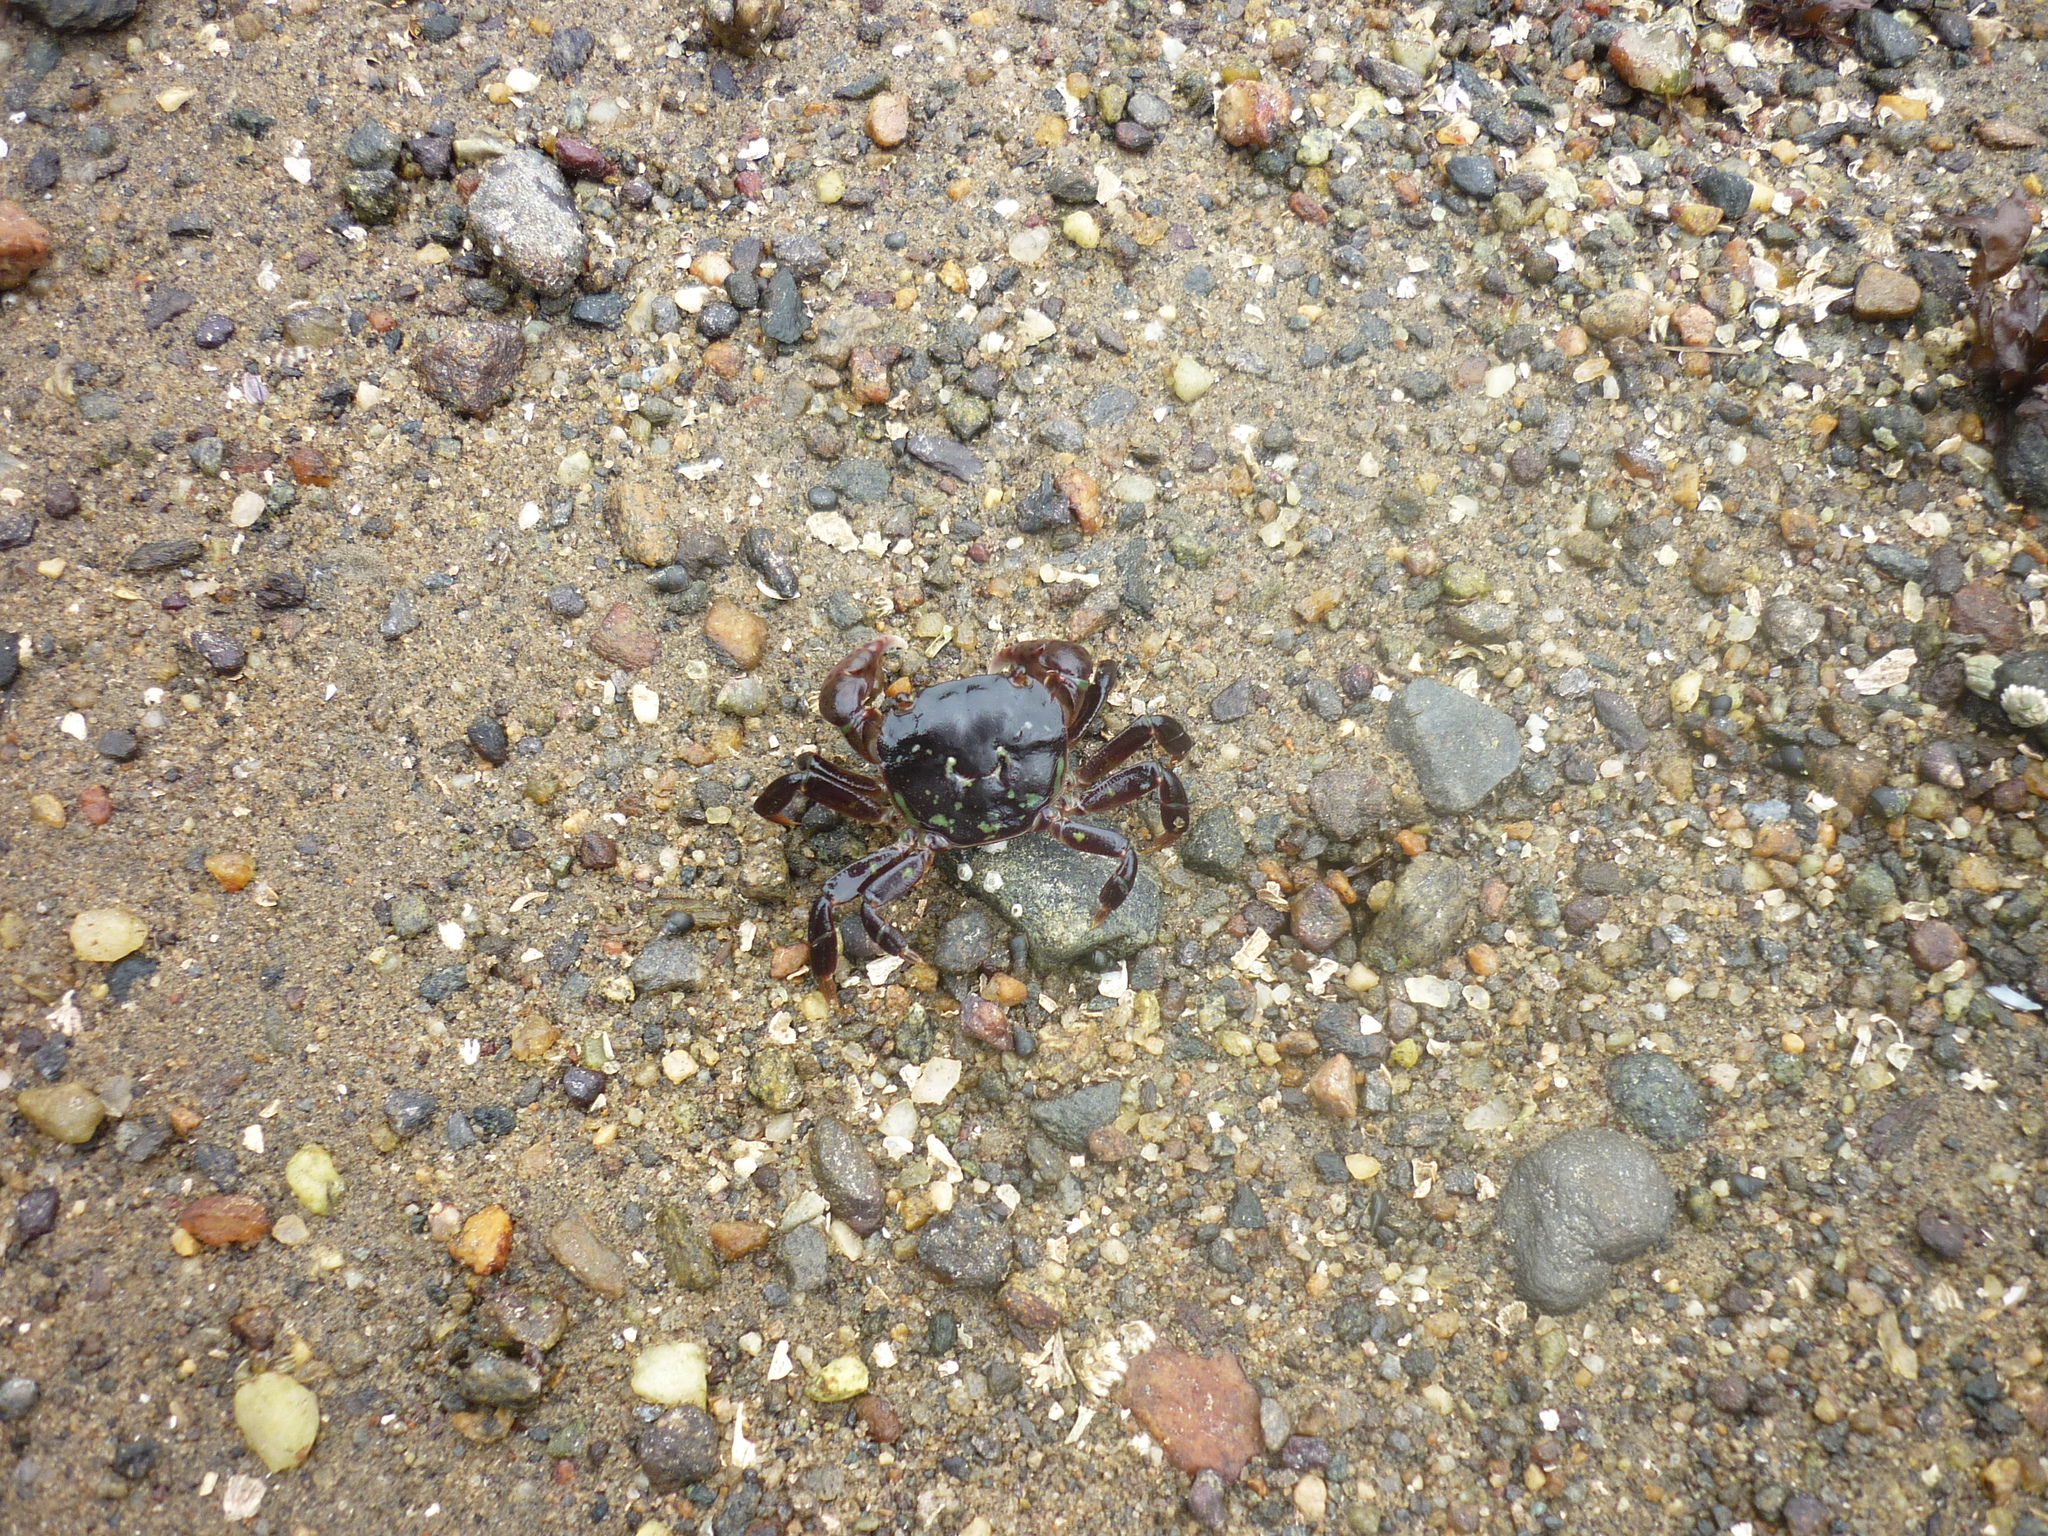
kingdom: Animalia
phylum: Arthropoda
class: Malacostraca
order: Decapoda
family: Varunidae
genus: Hemigrapsus
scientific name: Hemigrapsus nudus
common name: Purple shore crab
